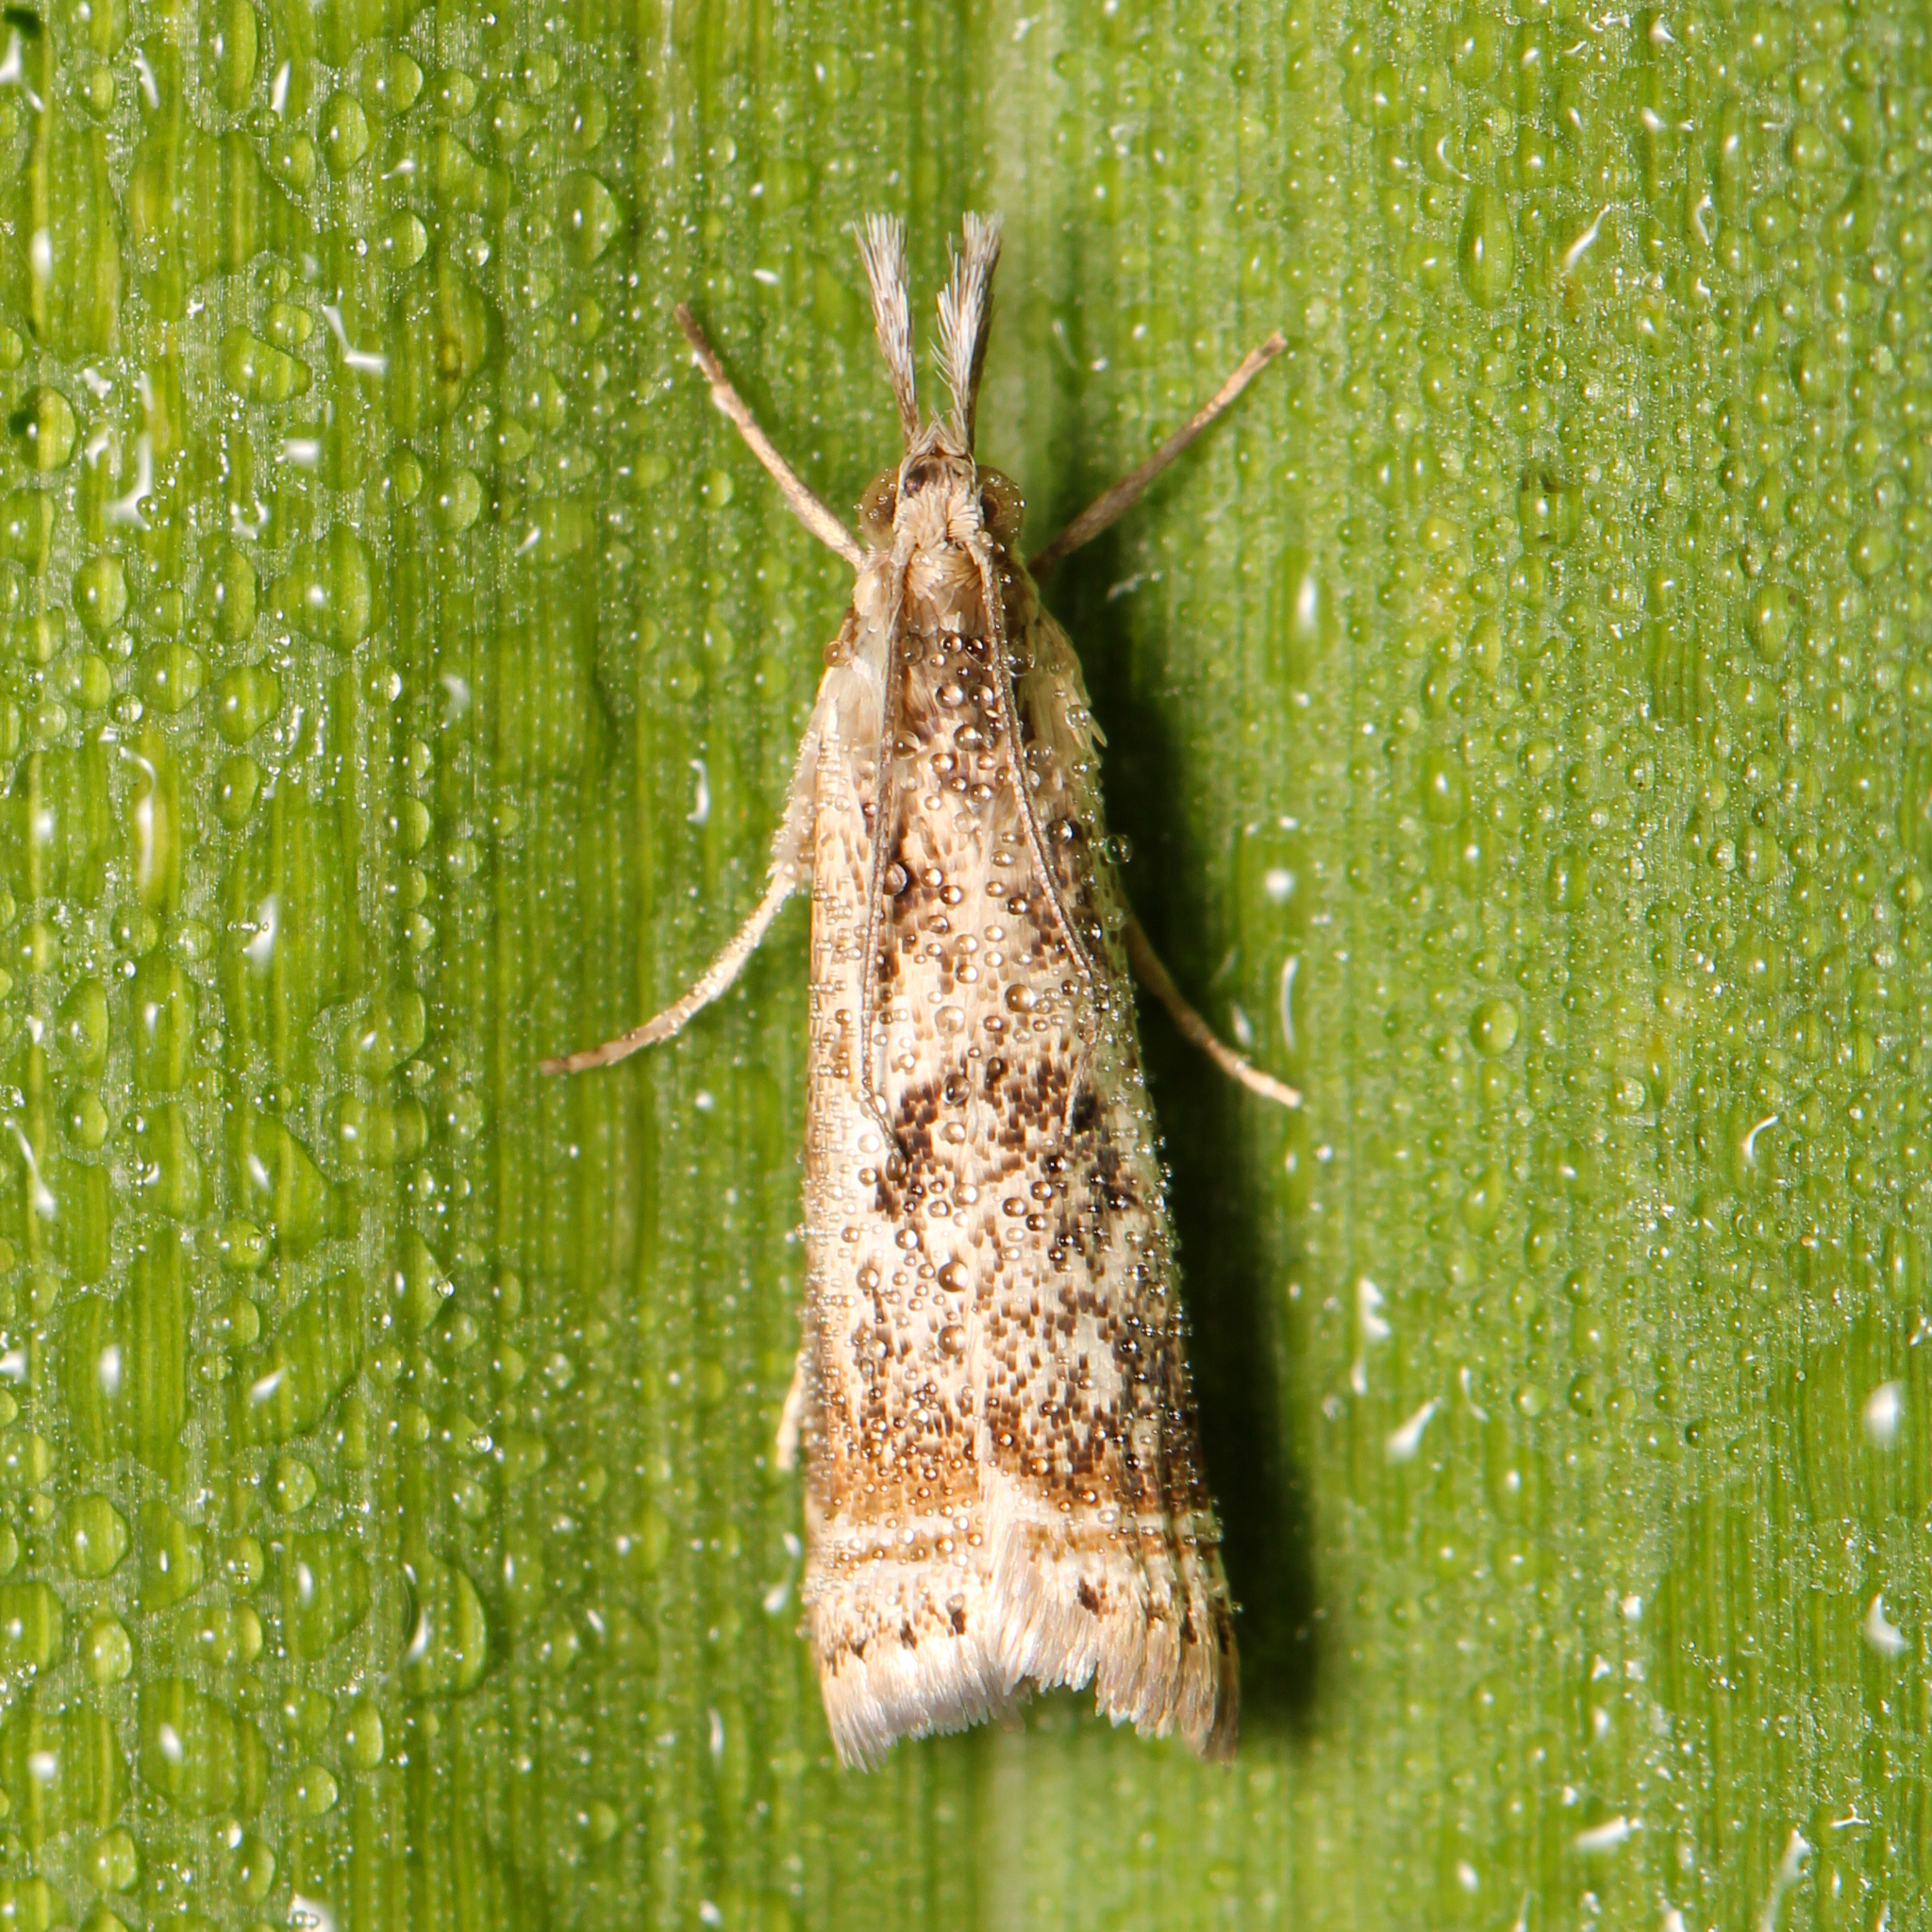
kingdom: Animalia
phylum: Arthropoda
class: Insecta
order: Lepidoptera
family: Crambidae
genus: Microcrambus
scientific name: Microcrambus elegans
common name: Elegant grass-veneer
